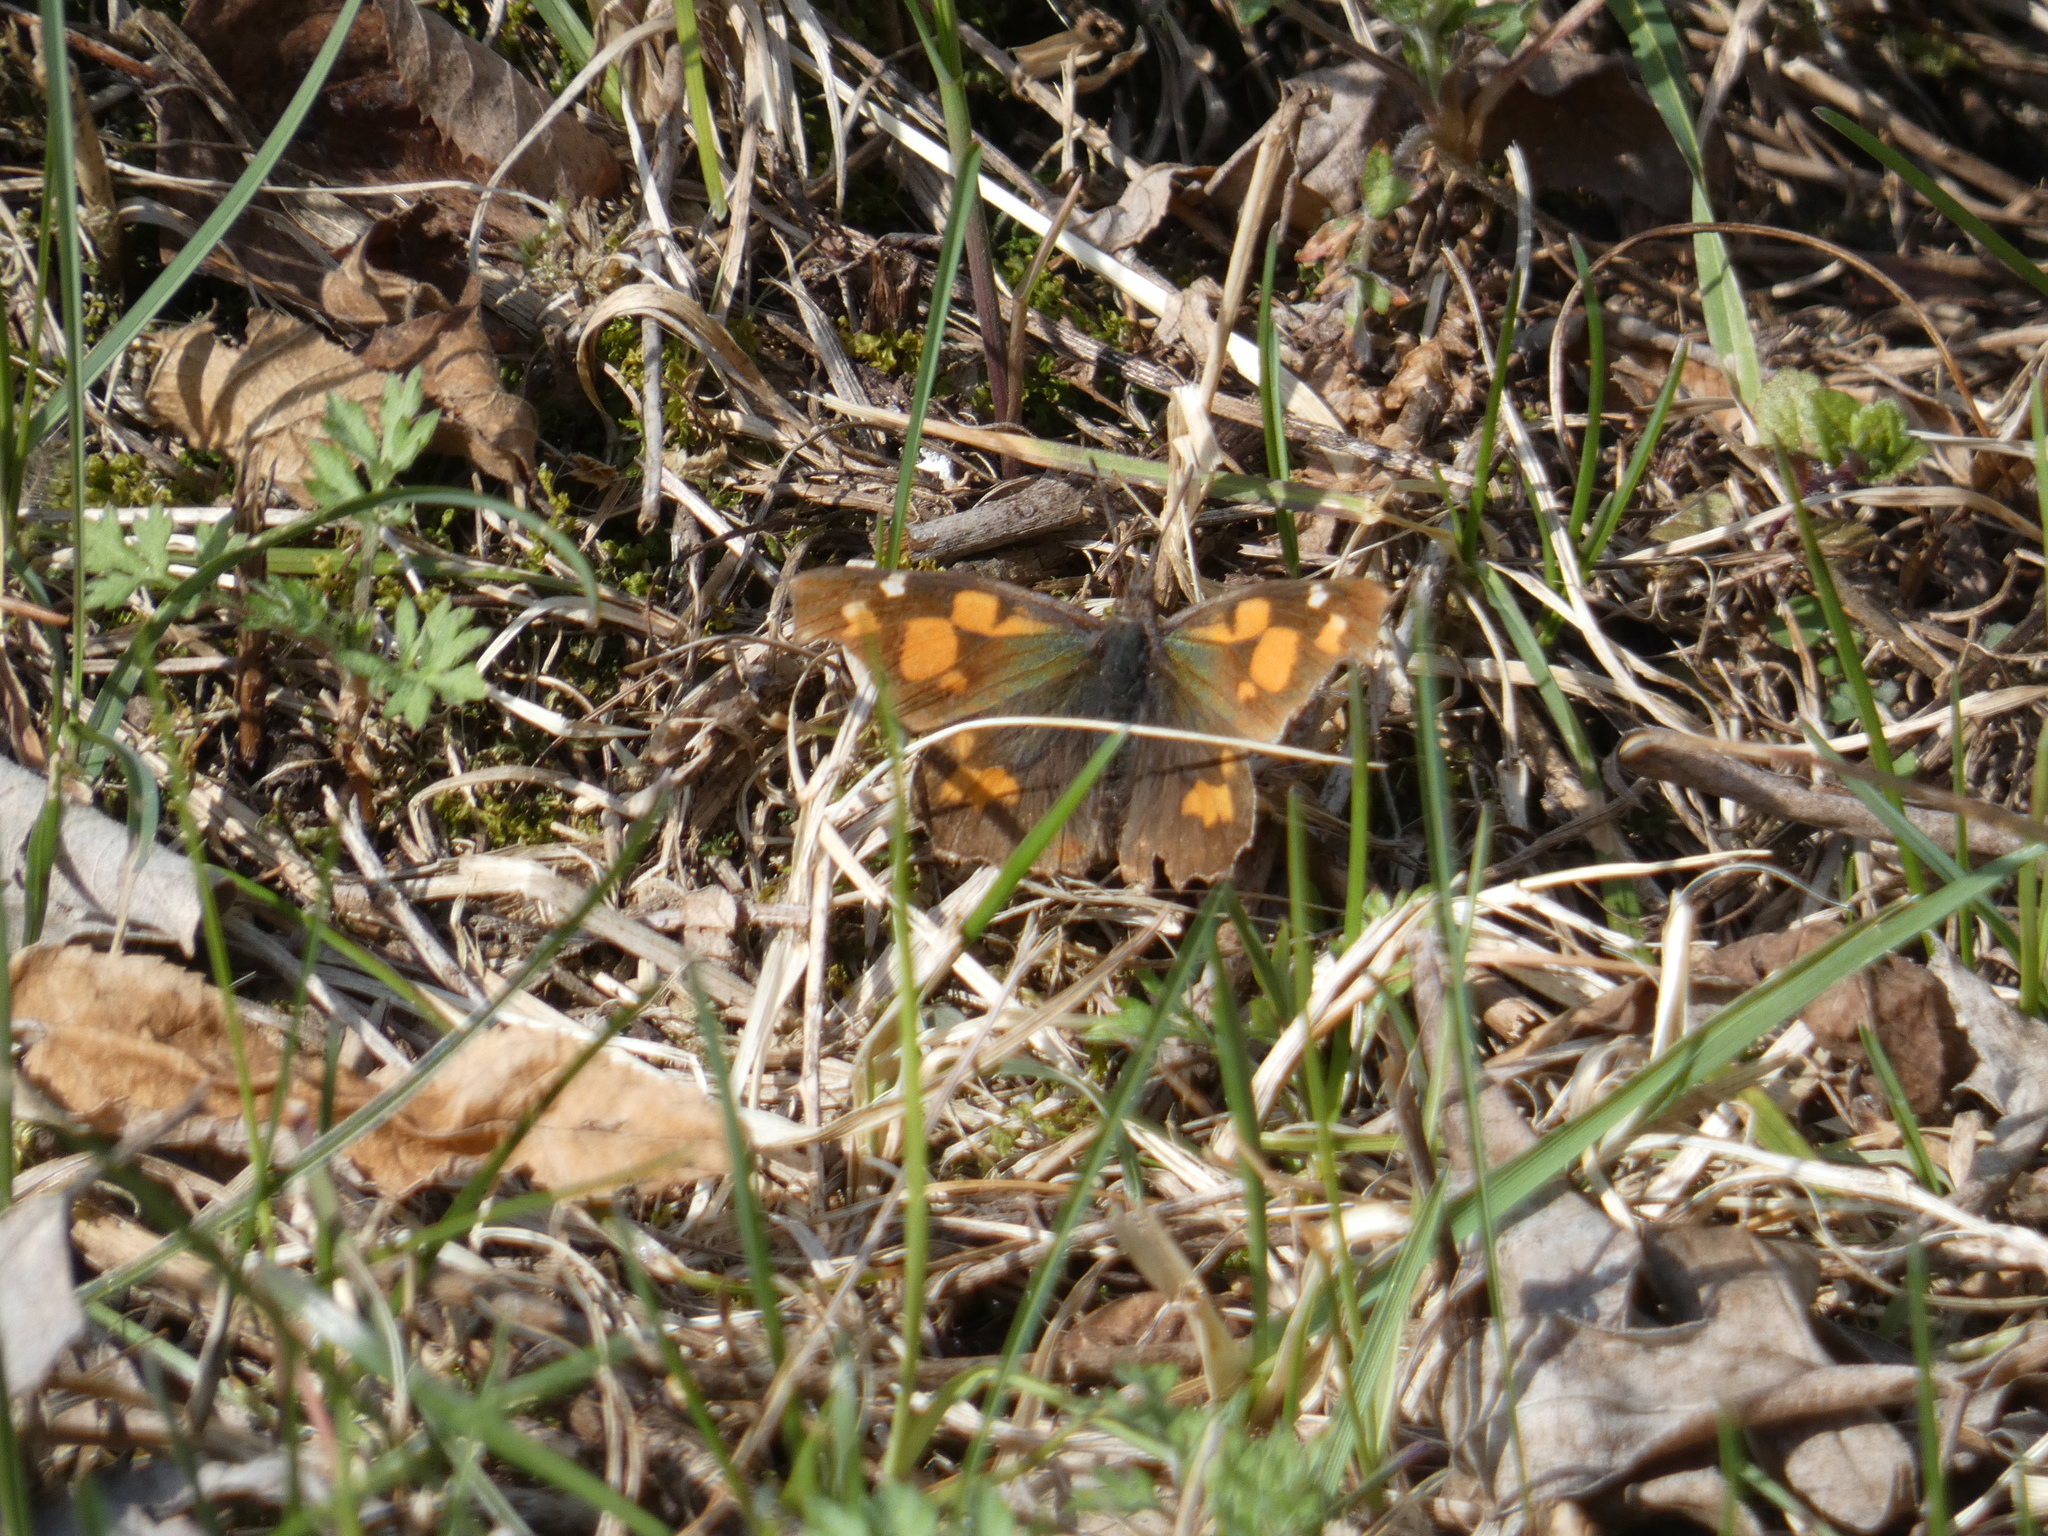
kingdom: Animalia
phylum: Arthropoda
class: Insecta
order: Lepidoptera
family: Nymphalidae
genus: Libythea
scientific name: Libythea celtis
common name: Nettle-tree butterfly
